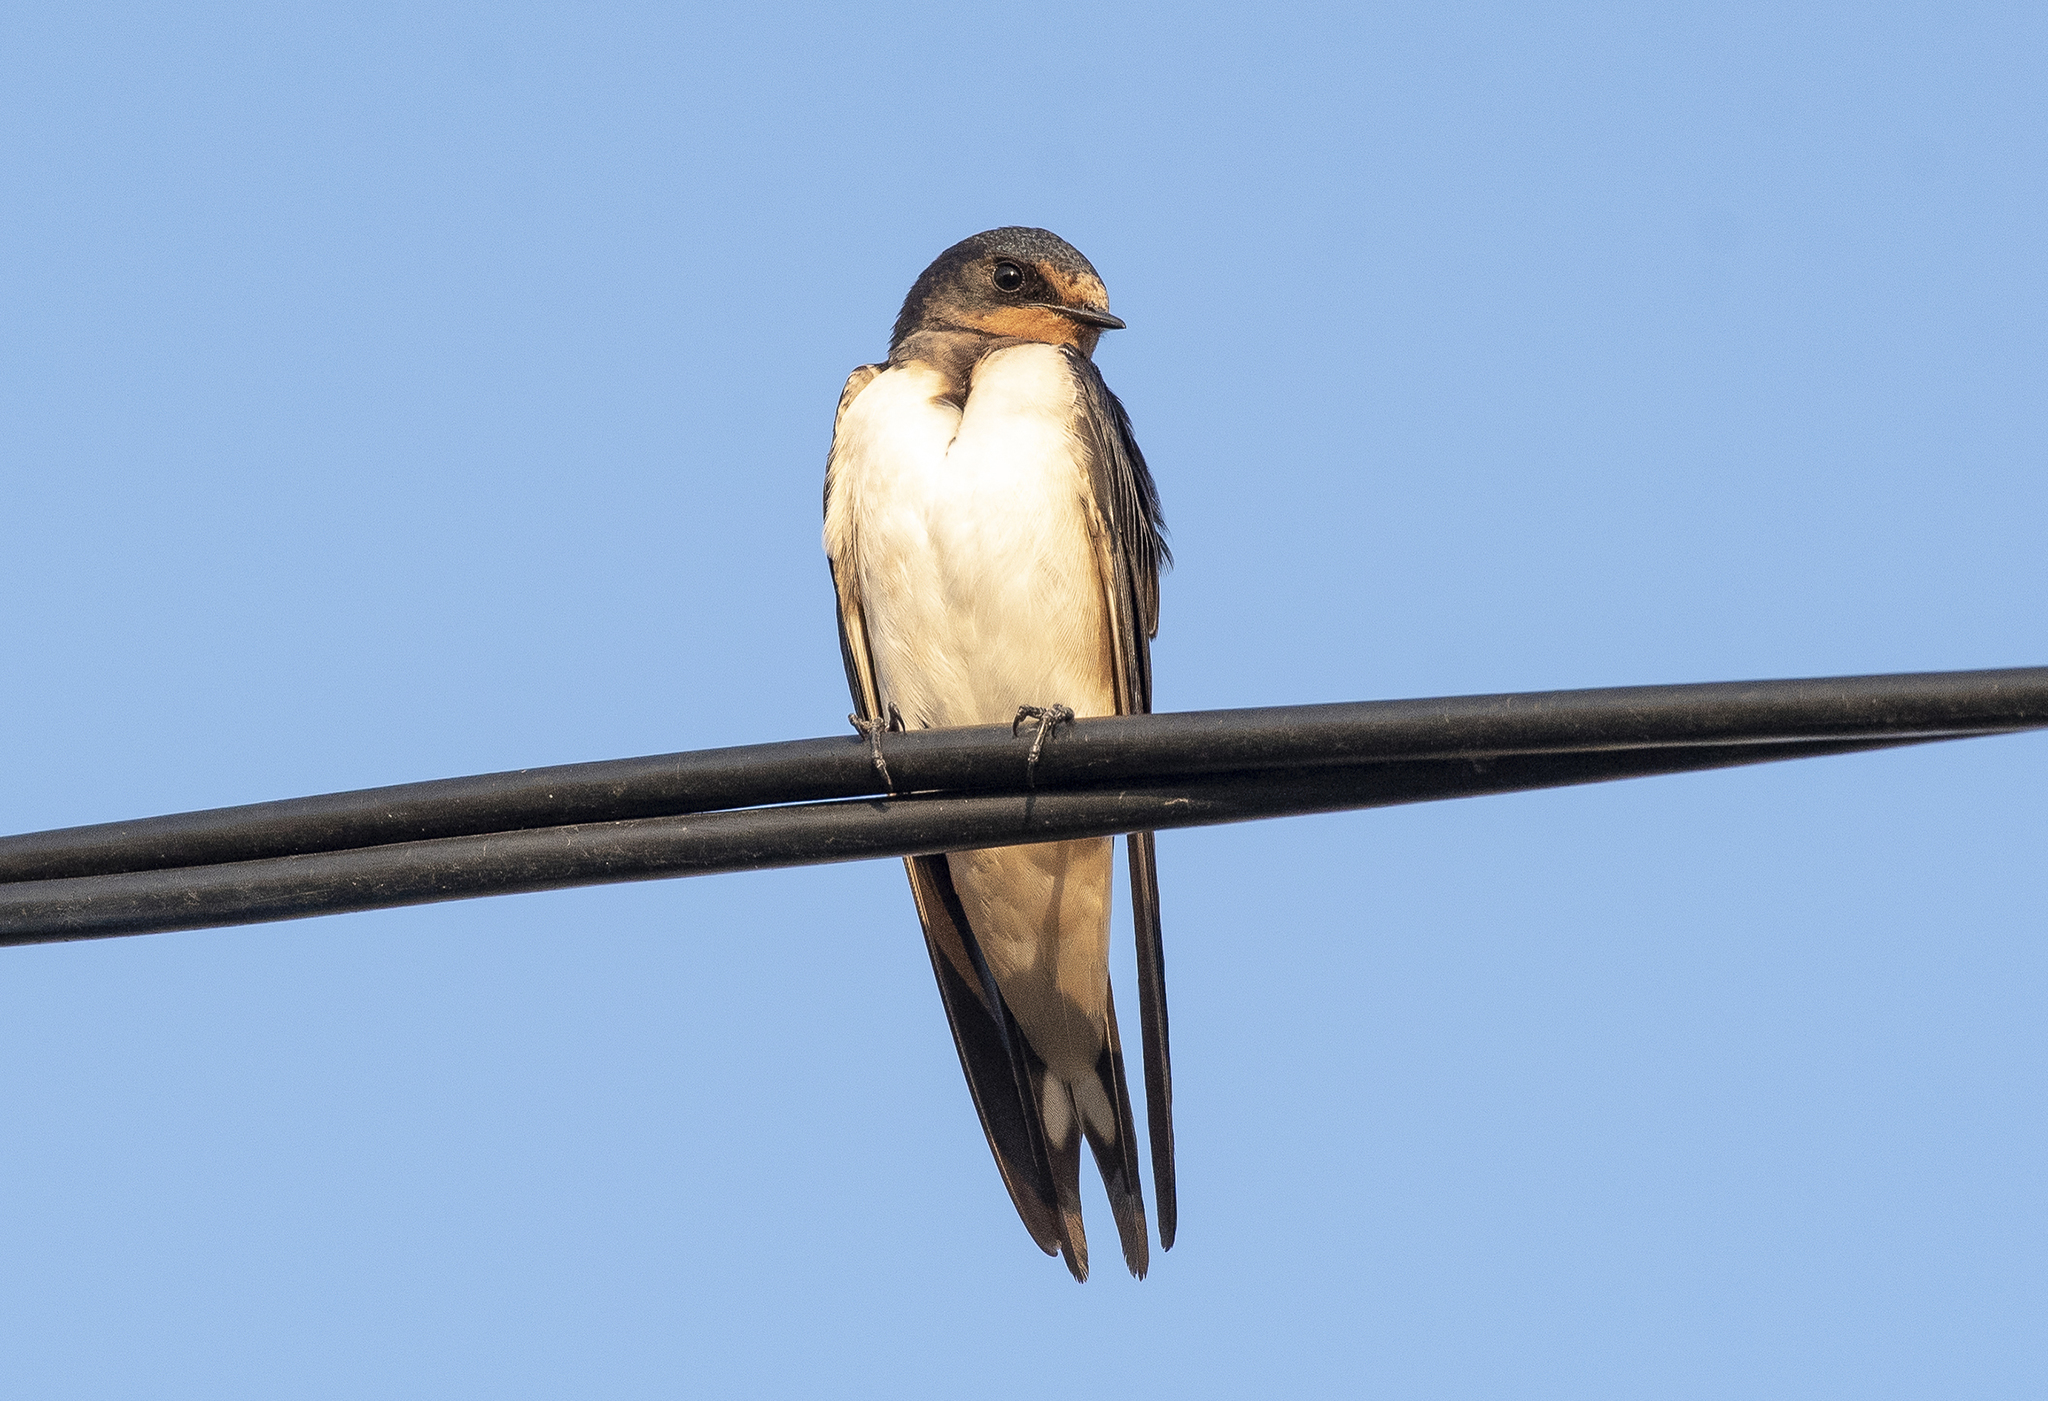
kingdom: Animalia
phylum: Chordata
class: Aves
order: Passeriformes
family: Hirundinidae
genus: Hirundo
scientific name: Hirundo rustica
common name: Barn swallow
